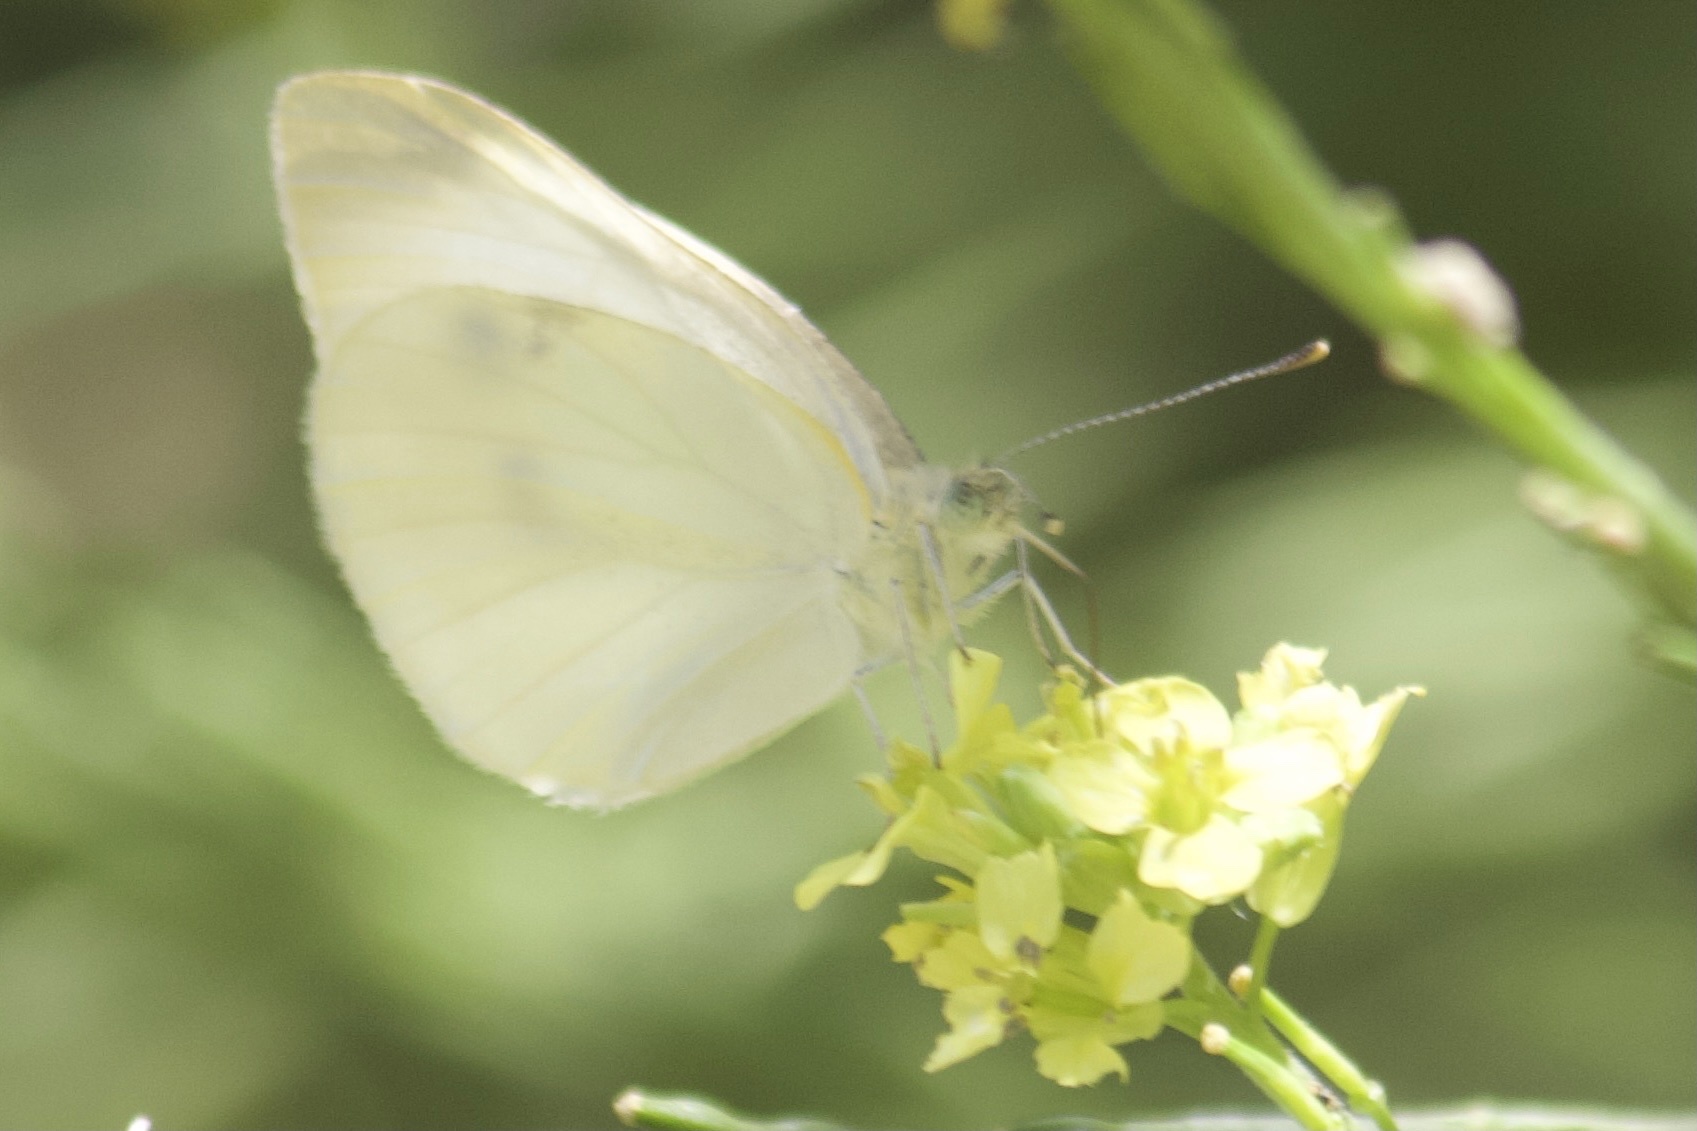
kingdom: Animalia
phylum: Arthropoda
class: Insecta
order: Lepidoptera
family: Pieridae
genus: Pieris
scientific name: Pieris rapae
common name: Small white
